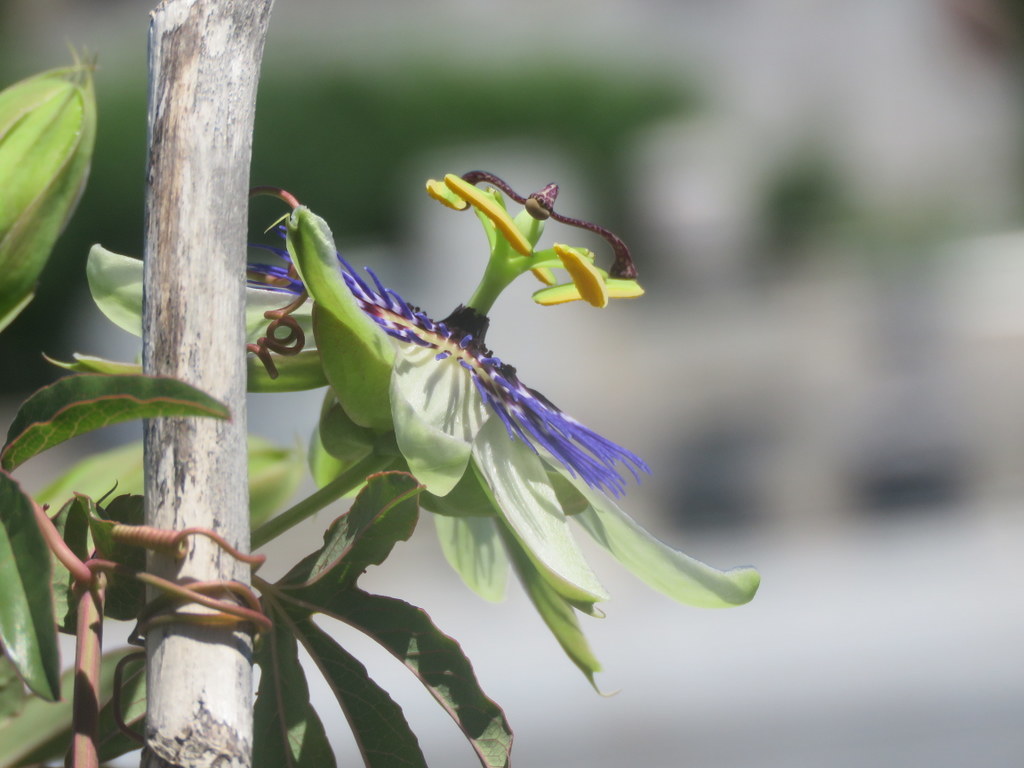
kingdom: Plantae
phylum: Tracheophyta
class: Magnoliopsida
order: Malpighiales
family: Passifloraceae
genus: Passiflora
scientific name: Passiflora caerulea
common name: Blue passionflower
